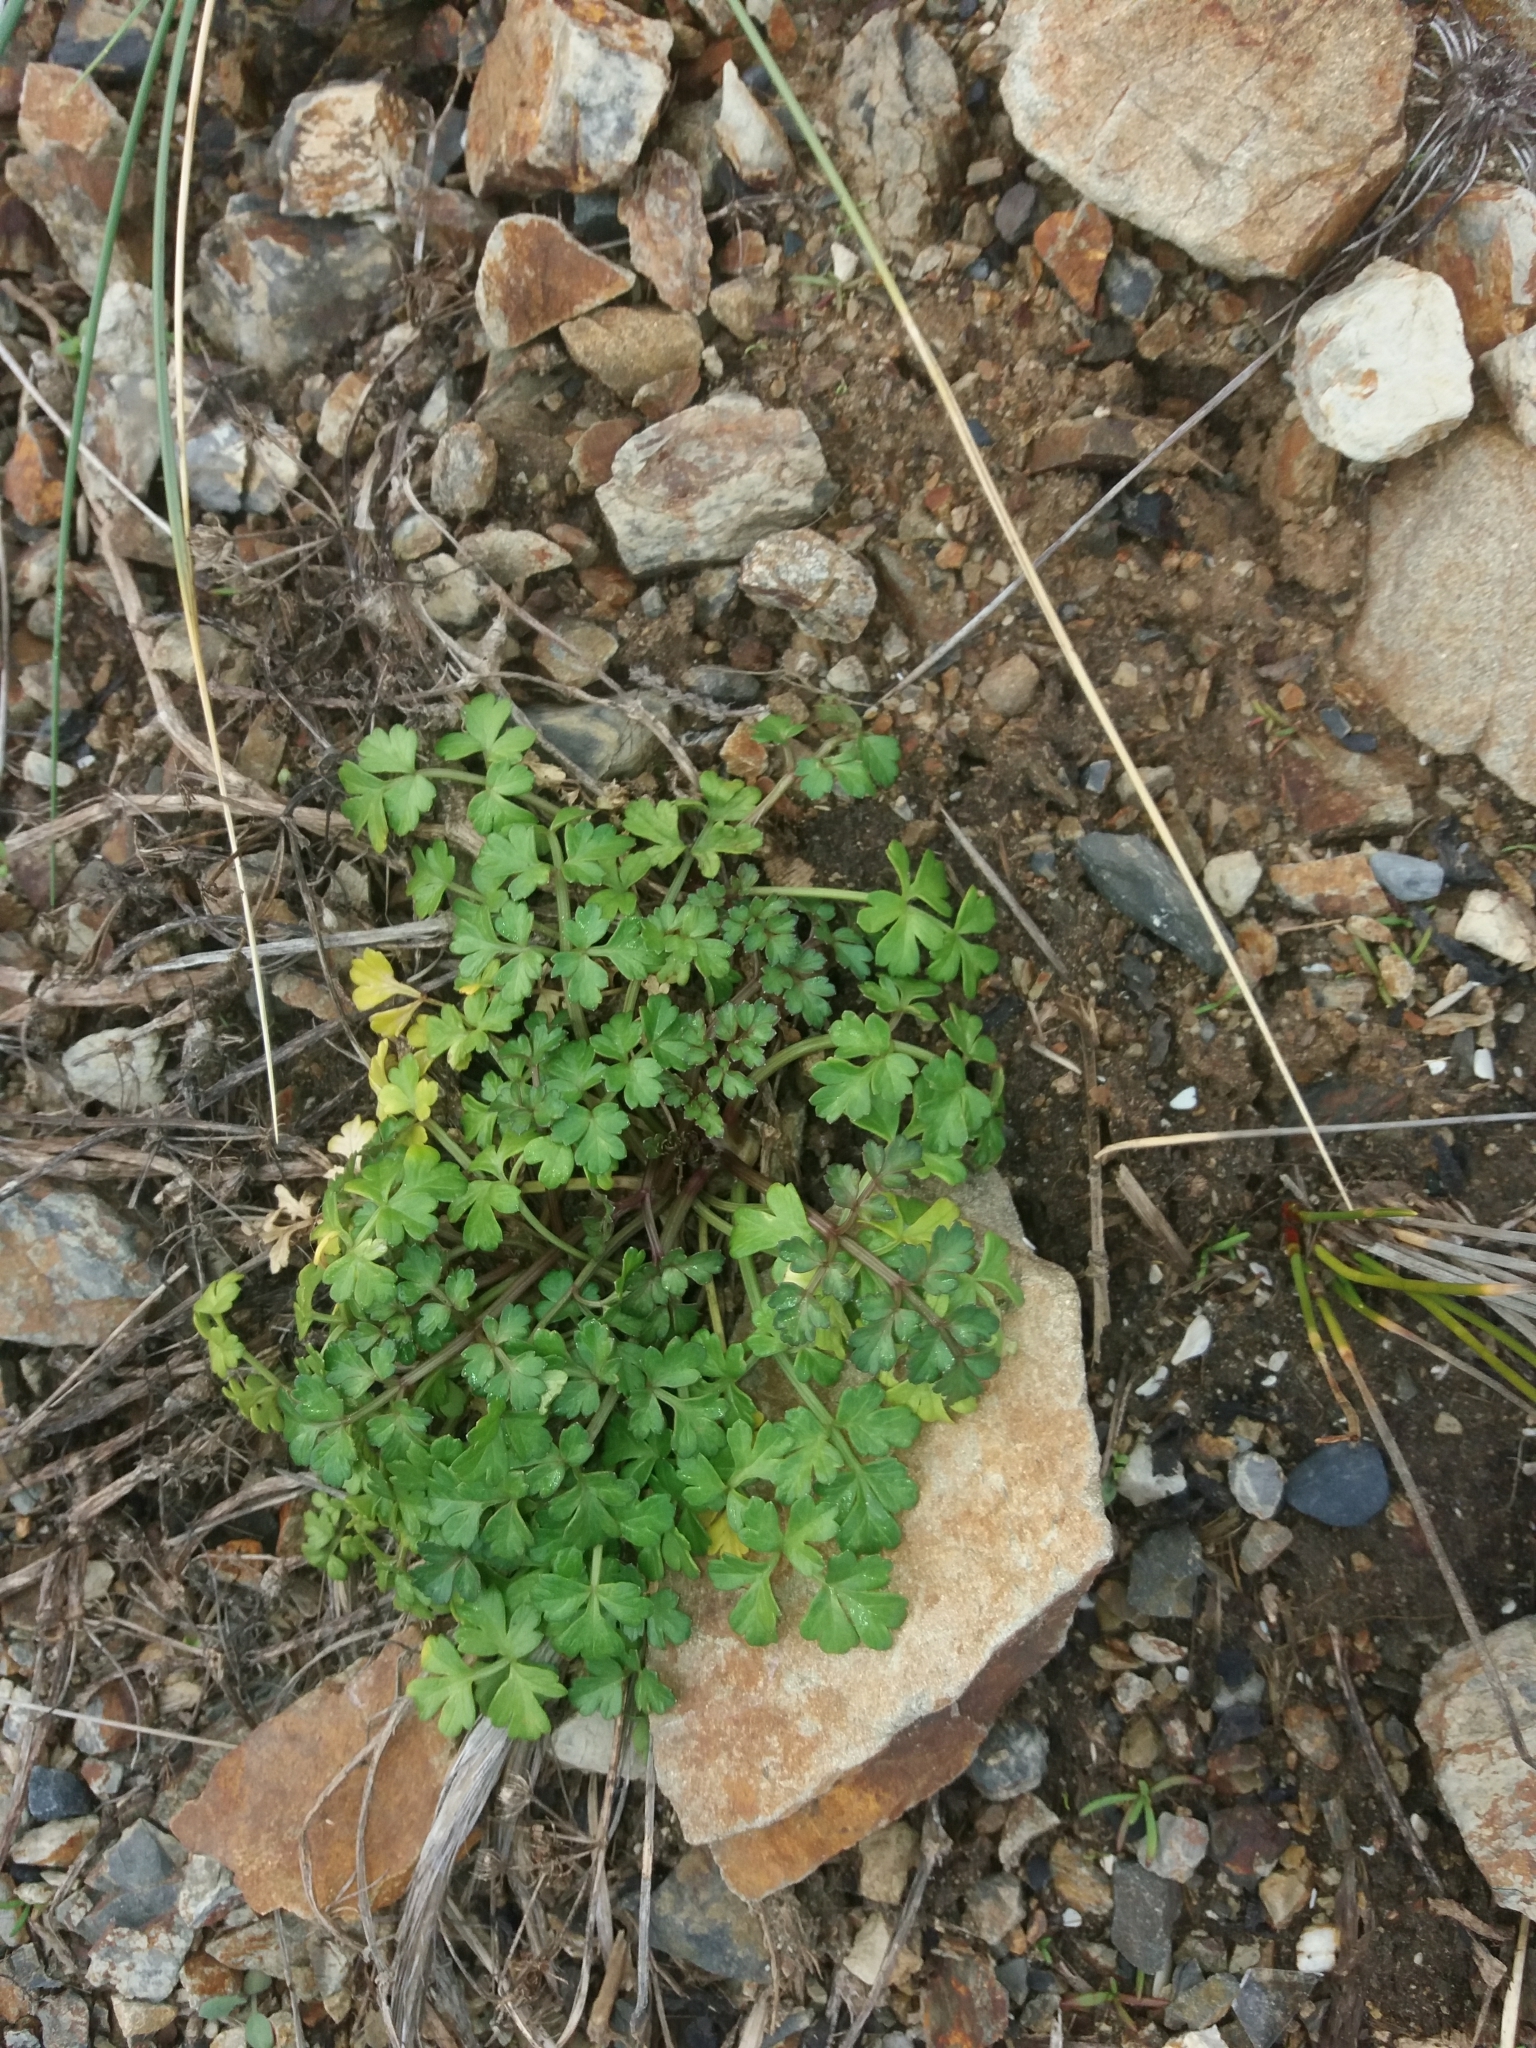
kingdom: Plantae
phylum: Tracheophyta
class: Magnoliopsida
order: Apiales
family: Apiaceae
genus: Apium
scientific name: Apium prostratum
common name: Prostrate marshwort
